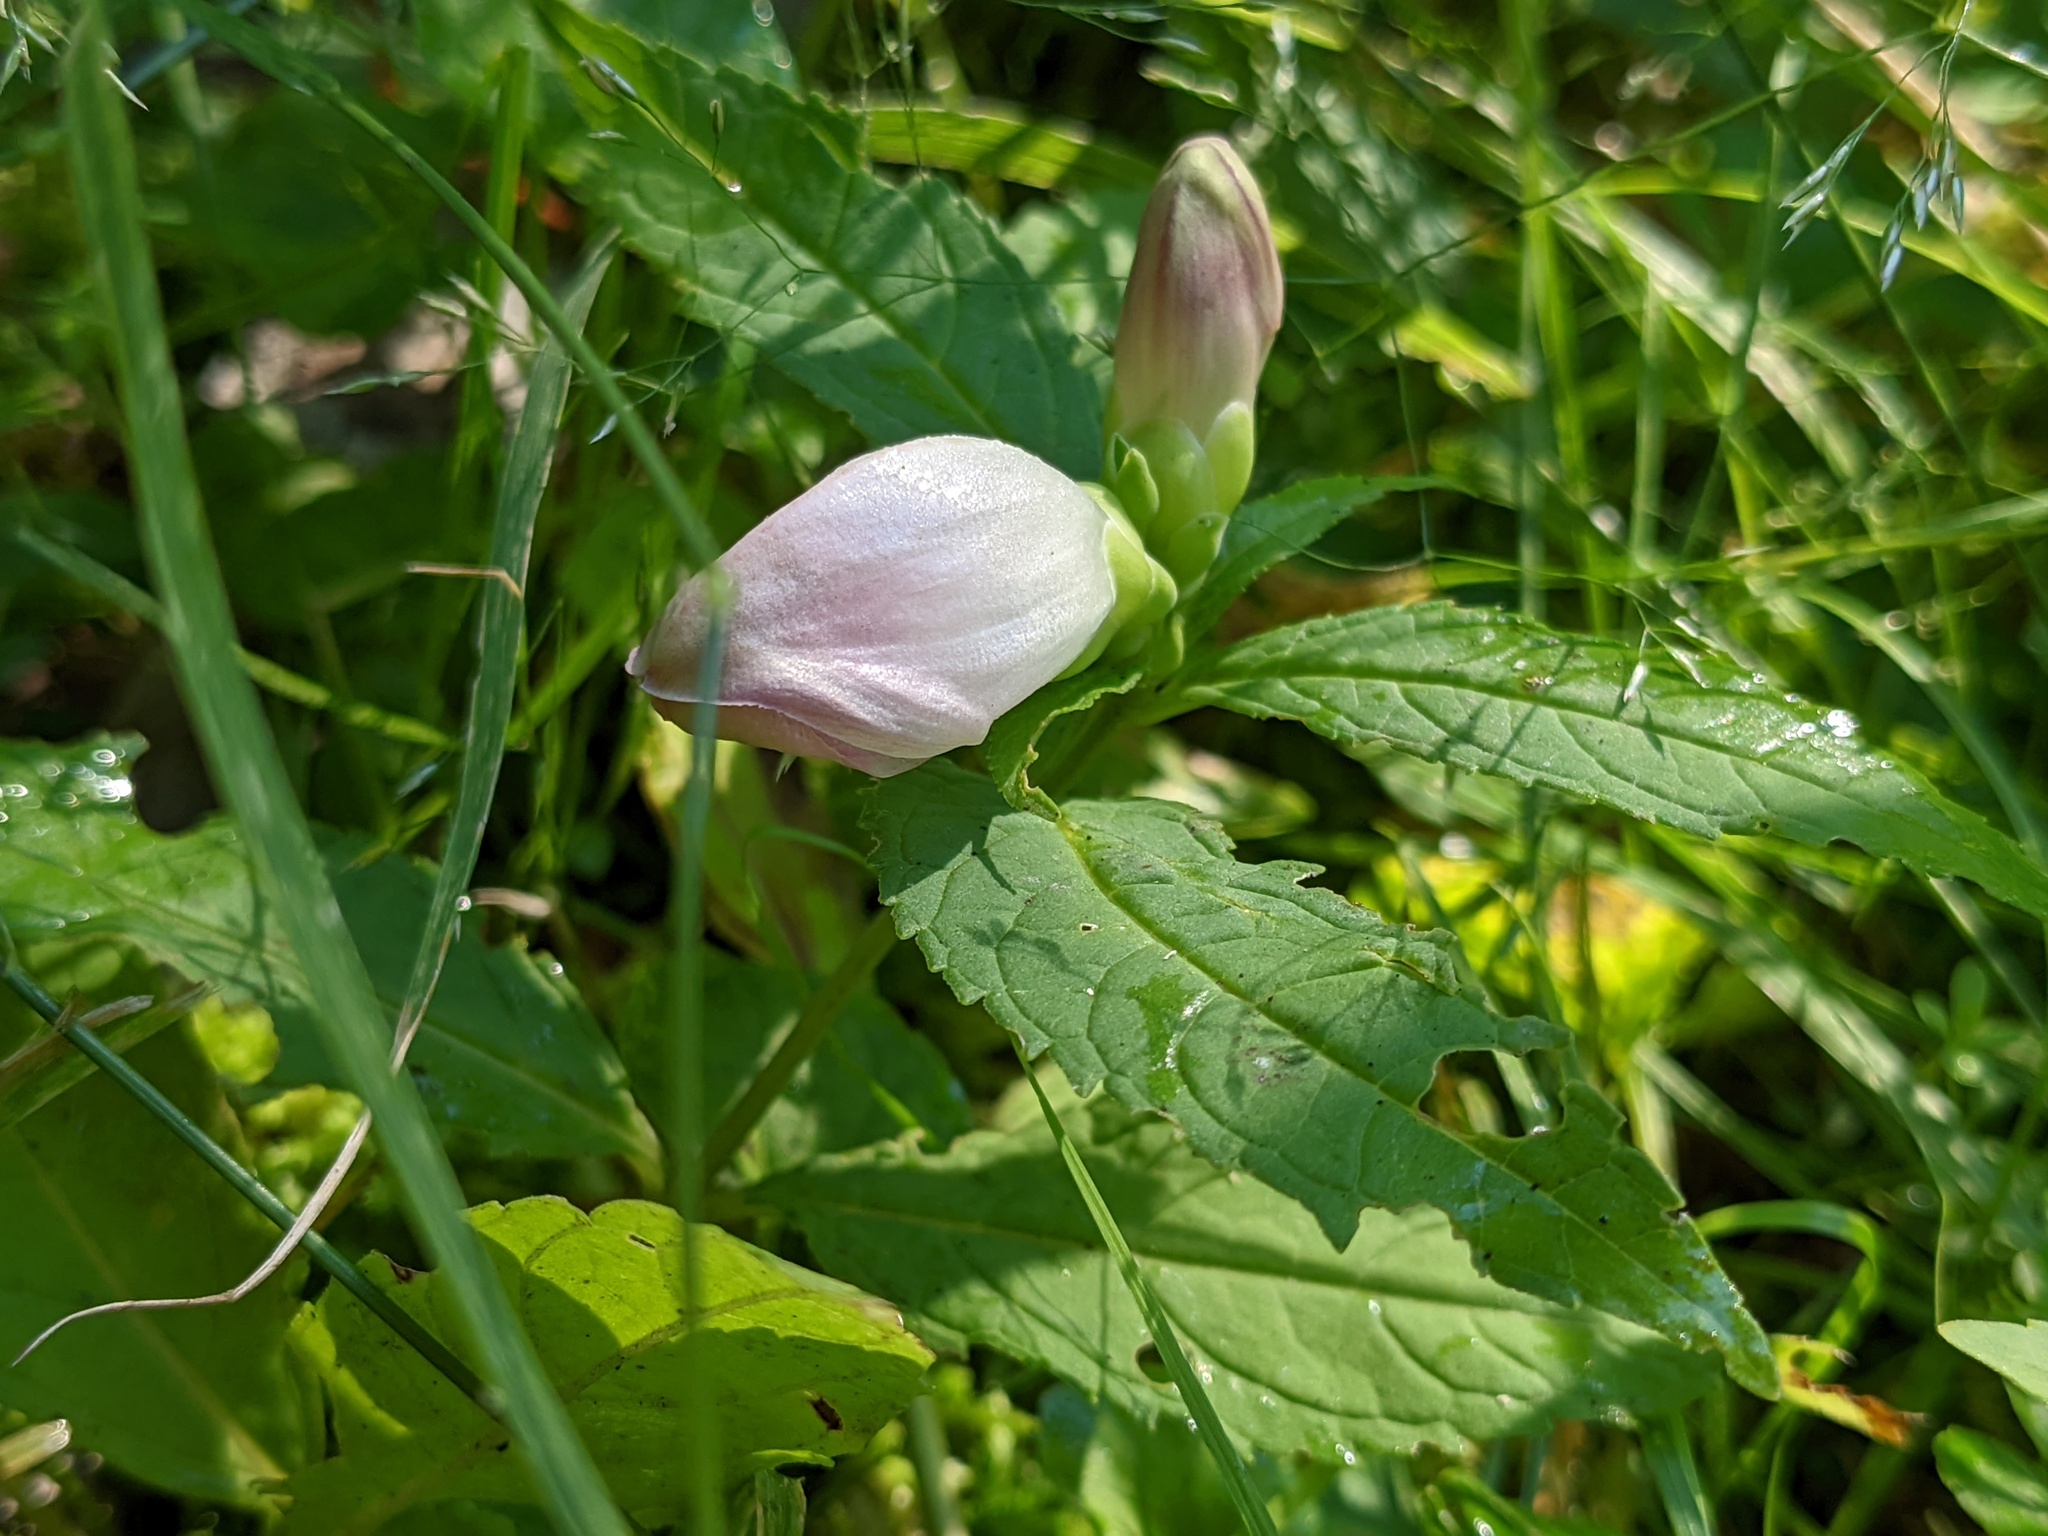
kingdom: Plantae
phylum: Tracheophyta
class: Magnoliopsida
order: Lamiales
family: Plantaginaceae
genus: Chelone
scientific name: Chelone glabra
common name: Snakehead
